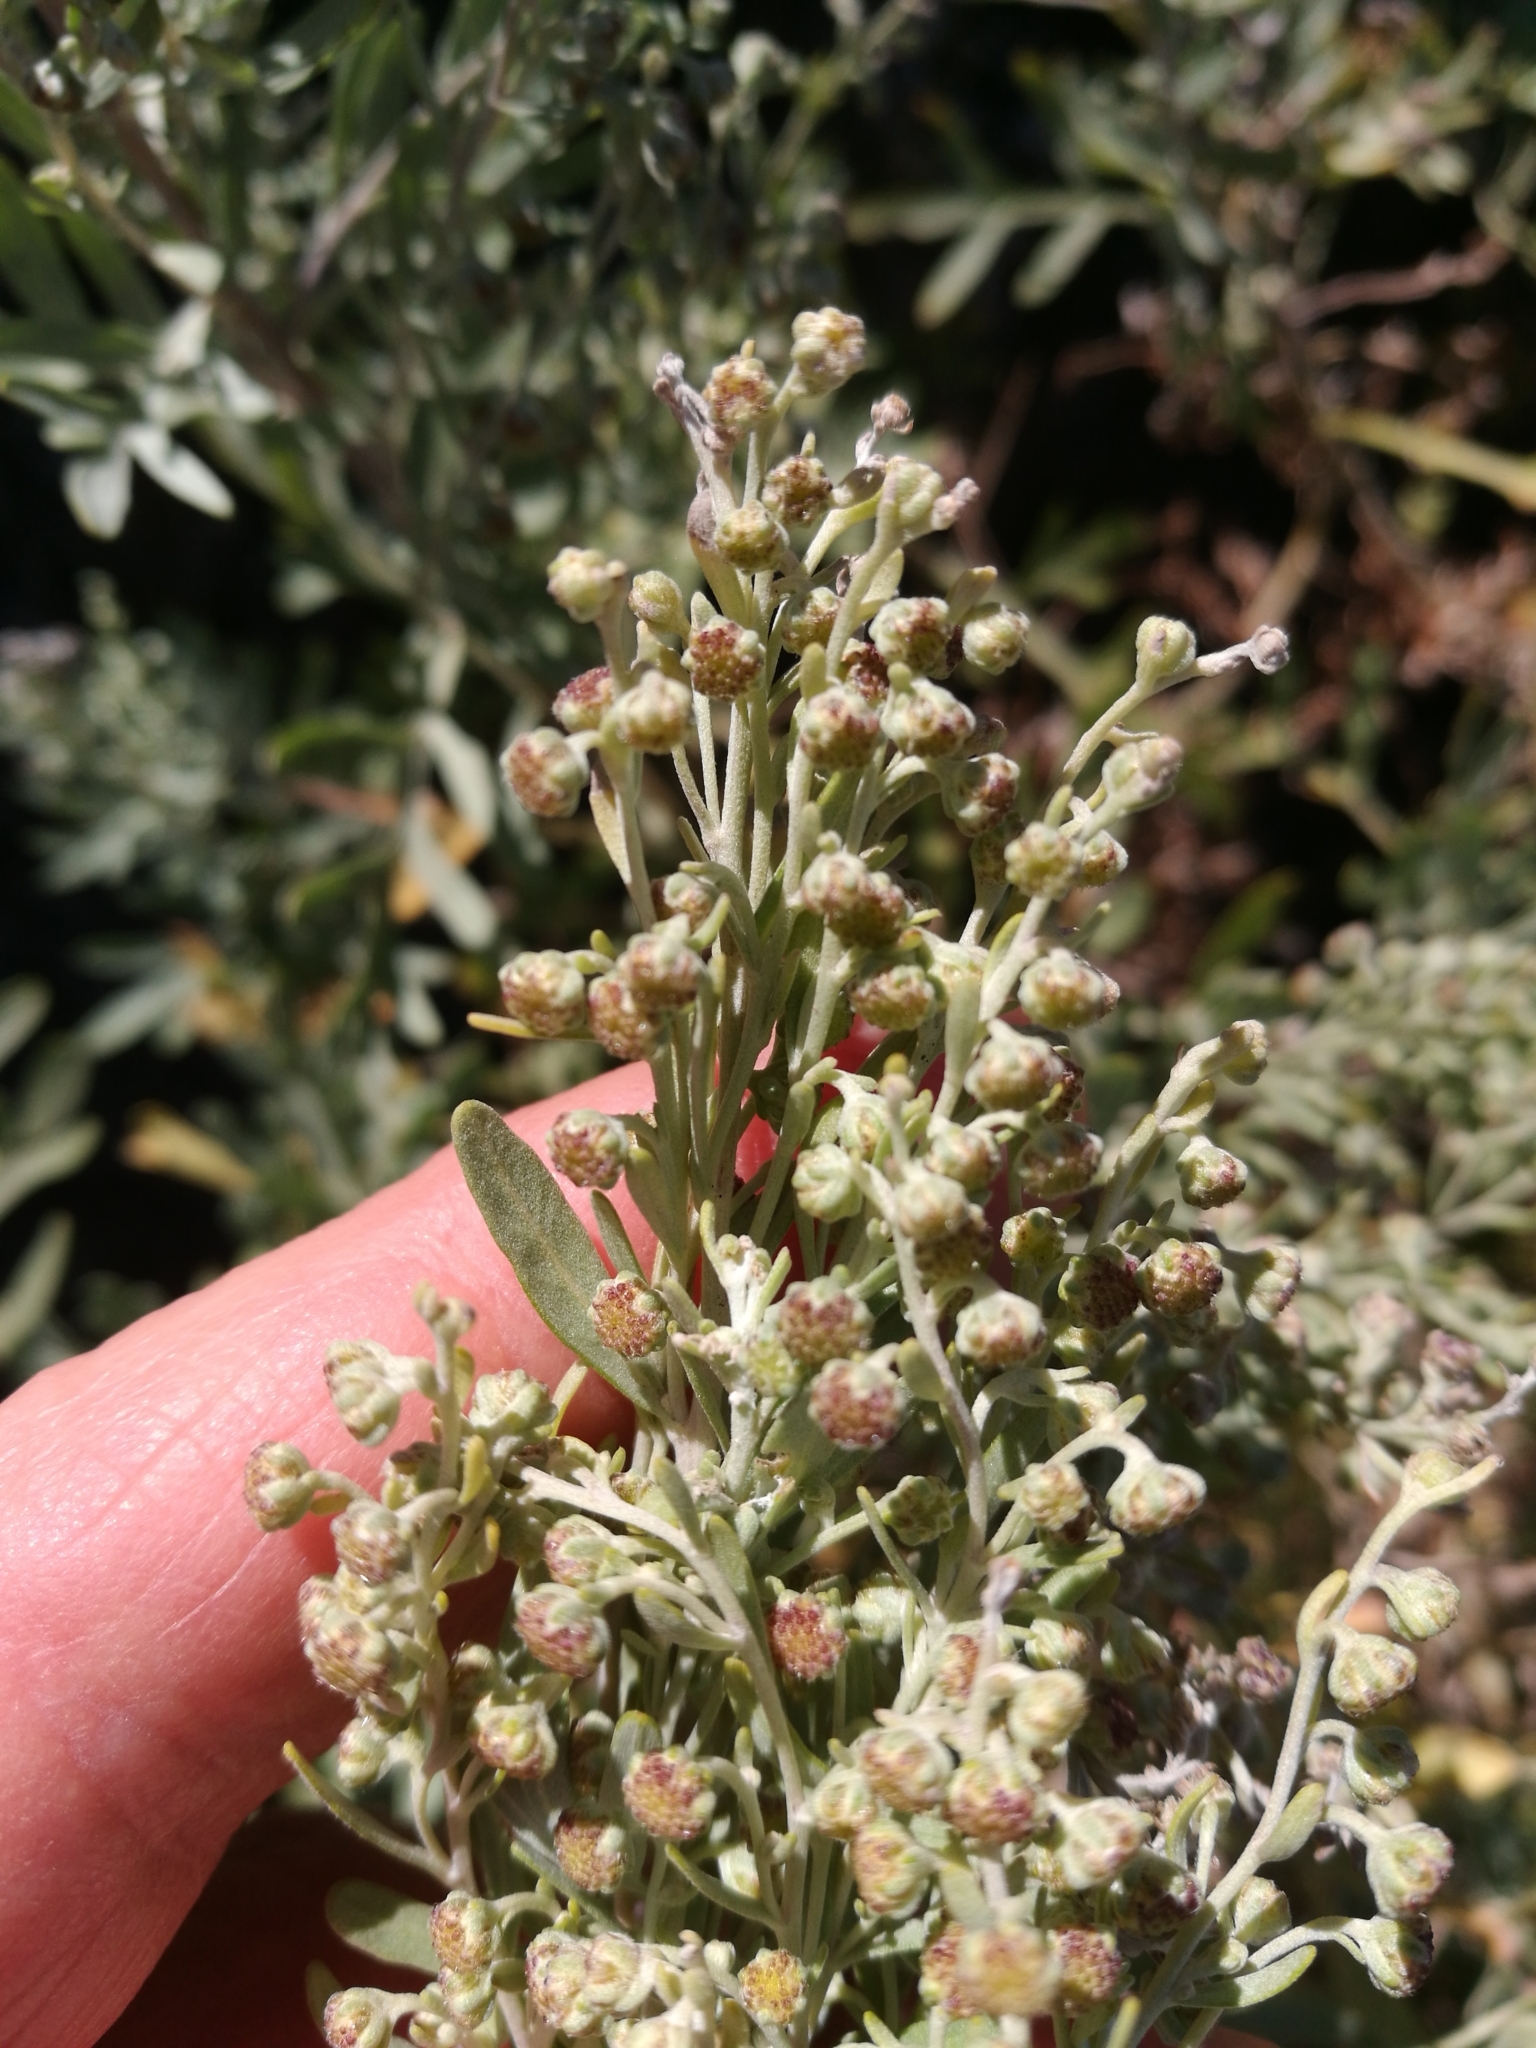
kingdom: Plantae
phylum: Tracheophyta
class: Magnoliopsida
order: Asterales
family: Asteraceae
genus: Artemisia
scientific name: Artemisia thuscula
